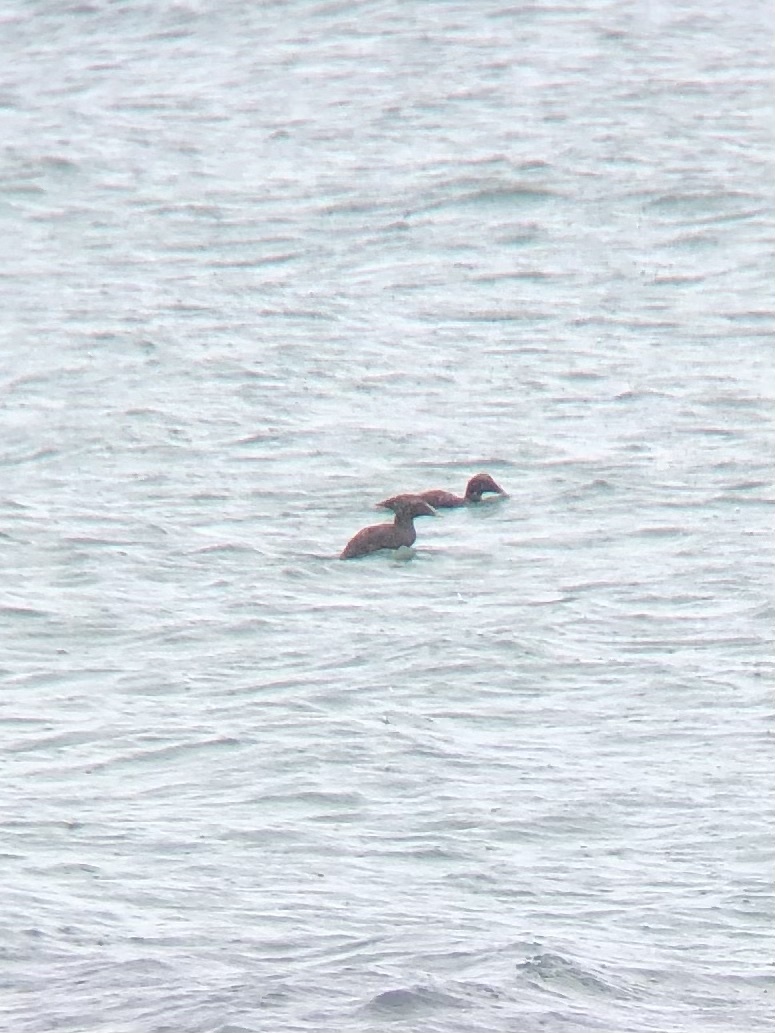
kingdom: Animalia
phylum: Chordata
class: Aves
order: Anseriformes
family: Anatidae
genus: Somateria
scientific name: Somateria mollissima
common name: Common eider
